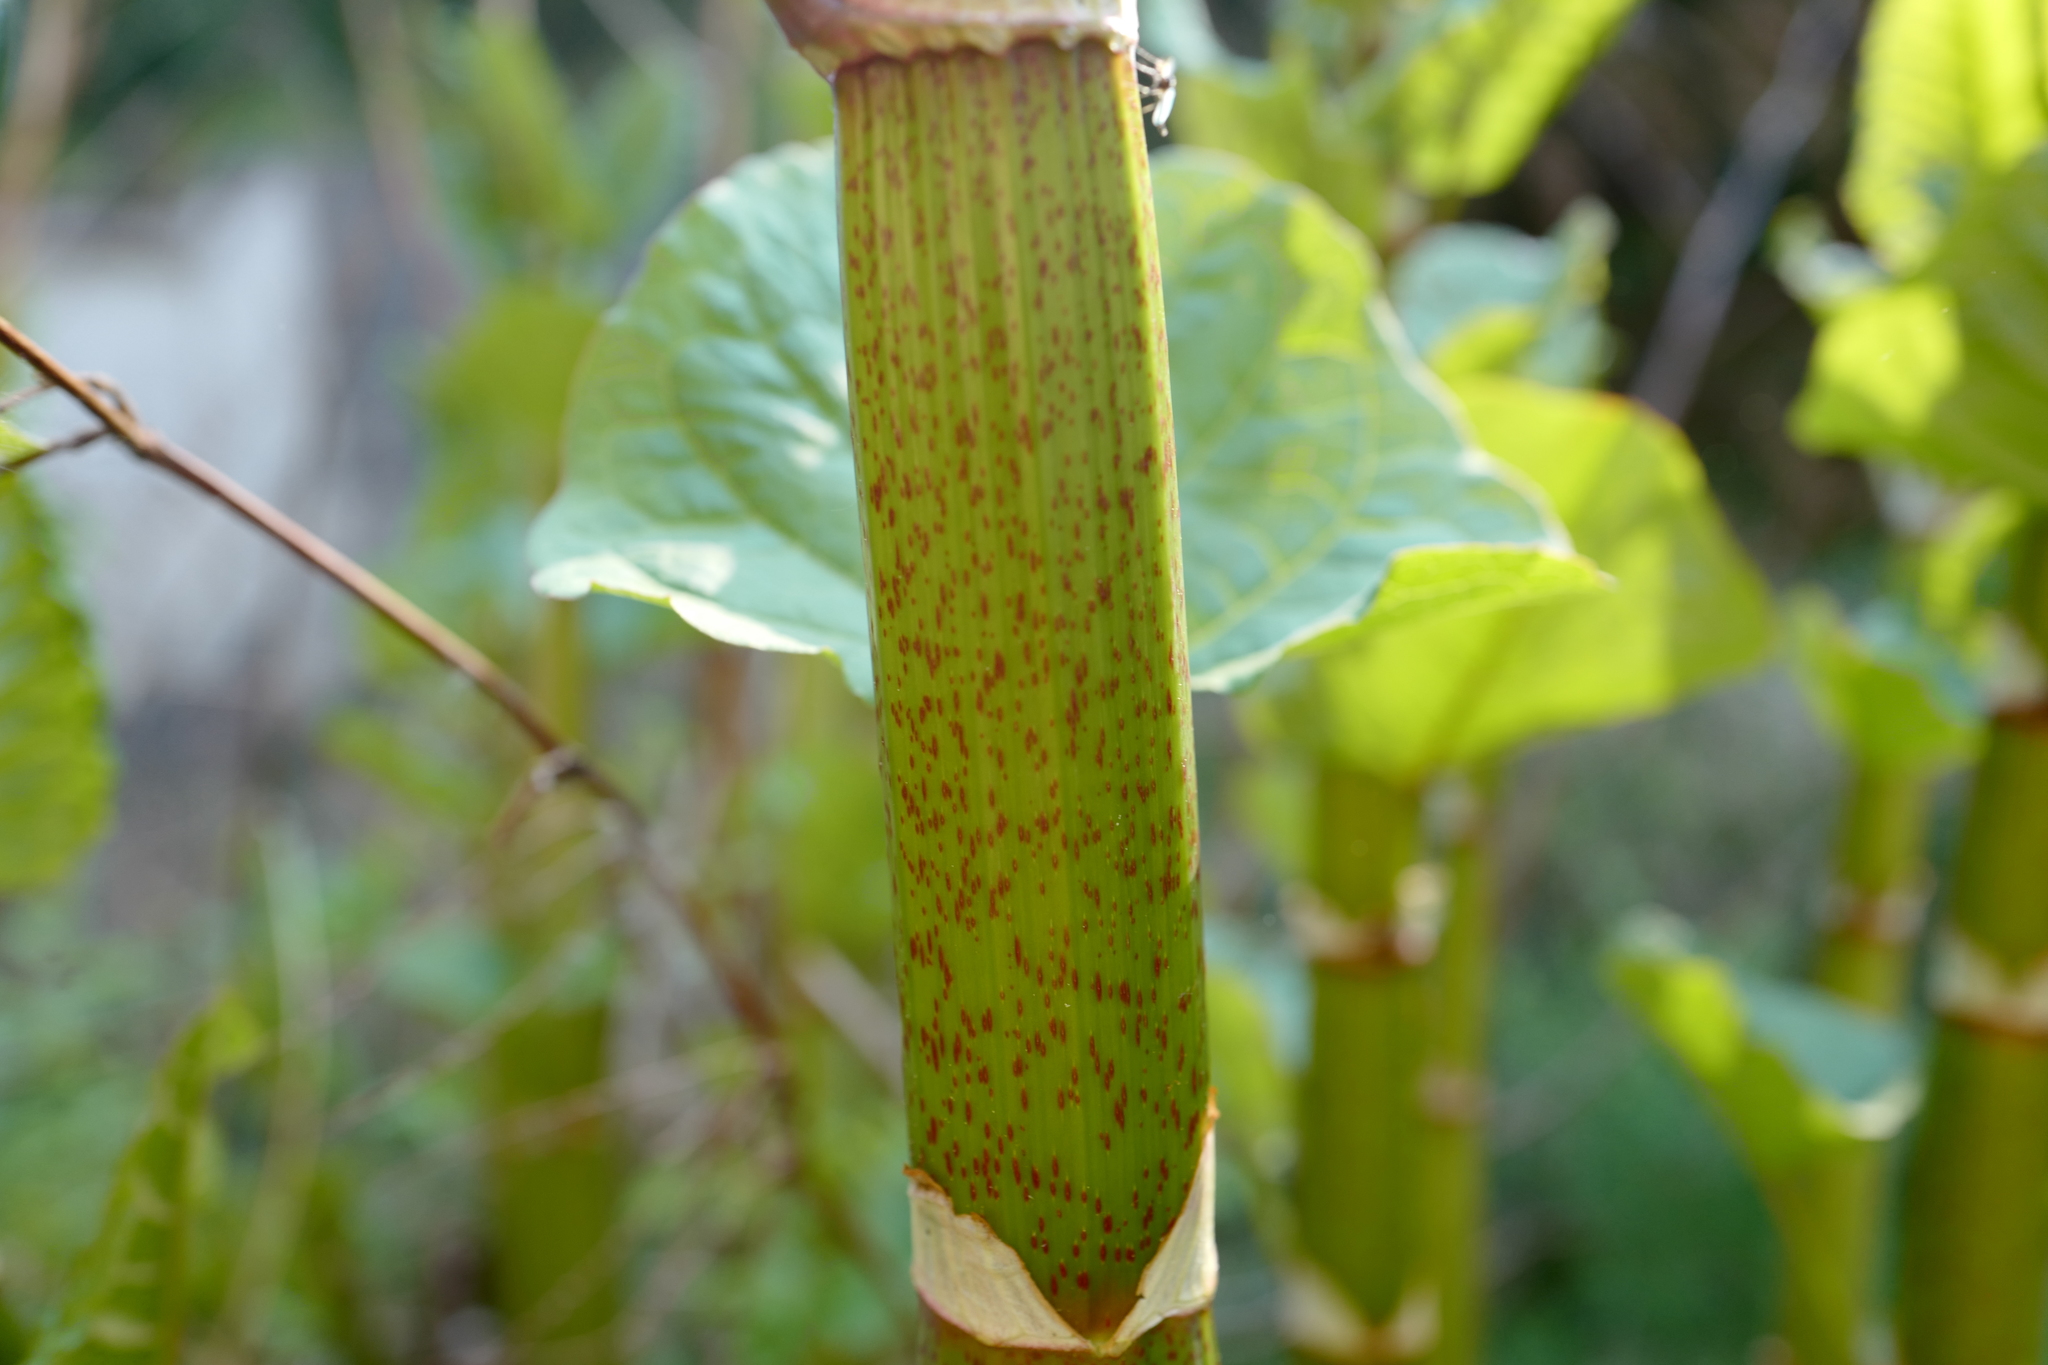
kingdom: Plantae
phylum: Tracheophyta
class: Magnoliopsida
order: Caryophyllales
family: Polygonaceae
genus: Reynoutria
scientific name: Reynoutria bohemica
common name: Bohemian knotweed
